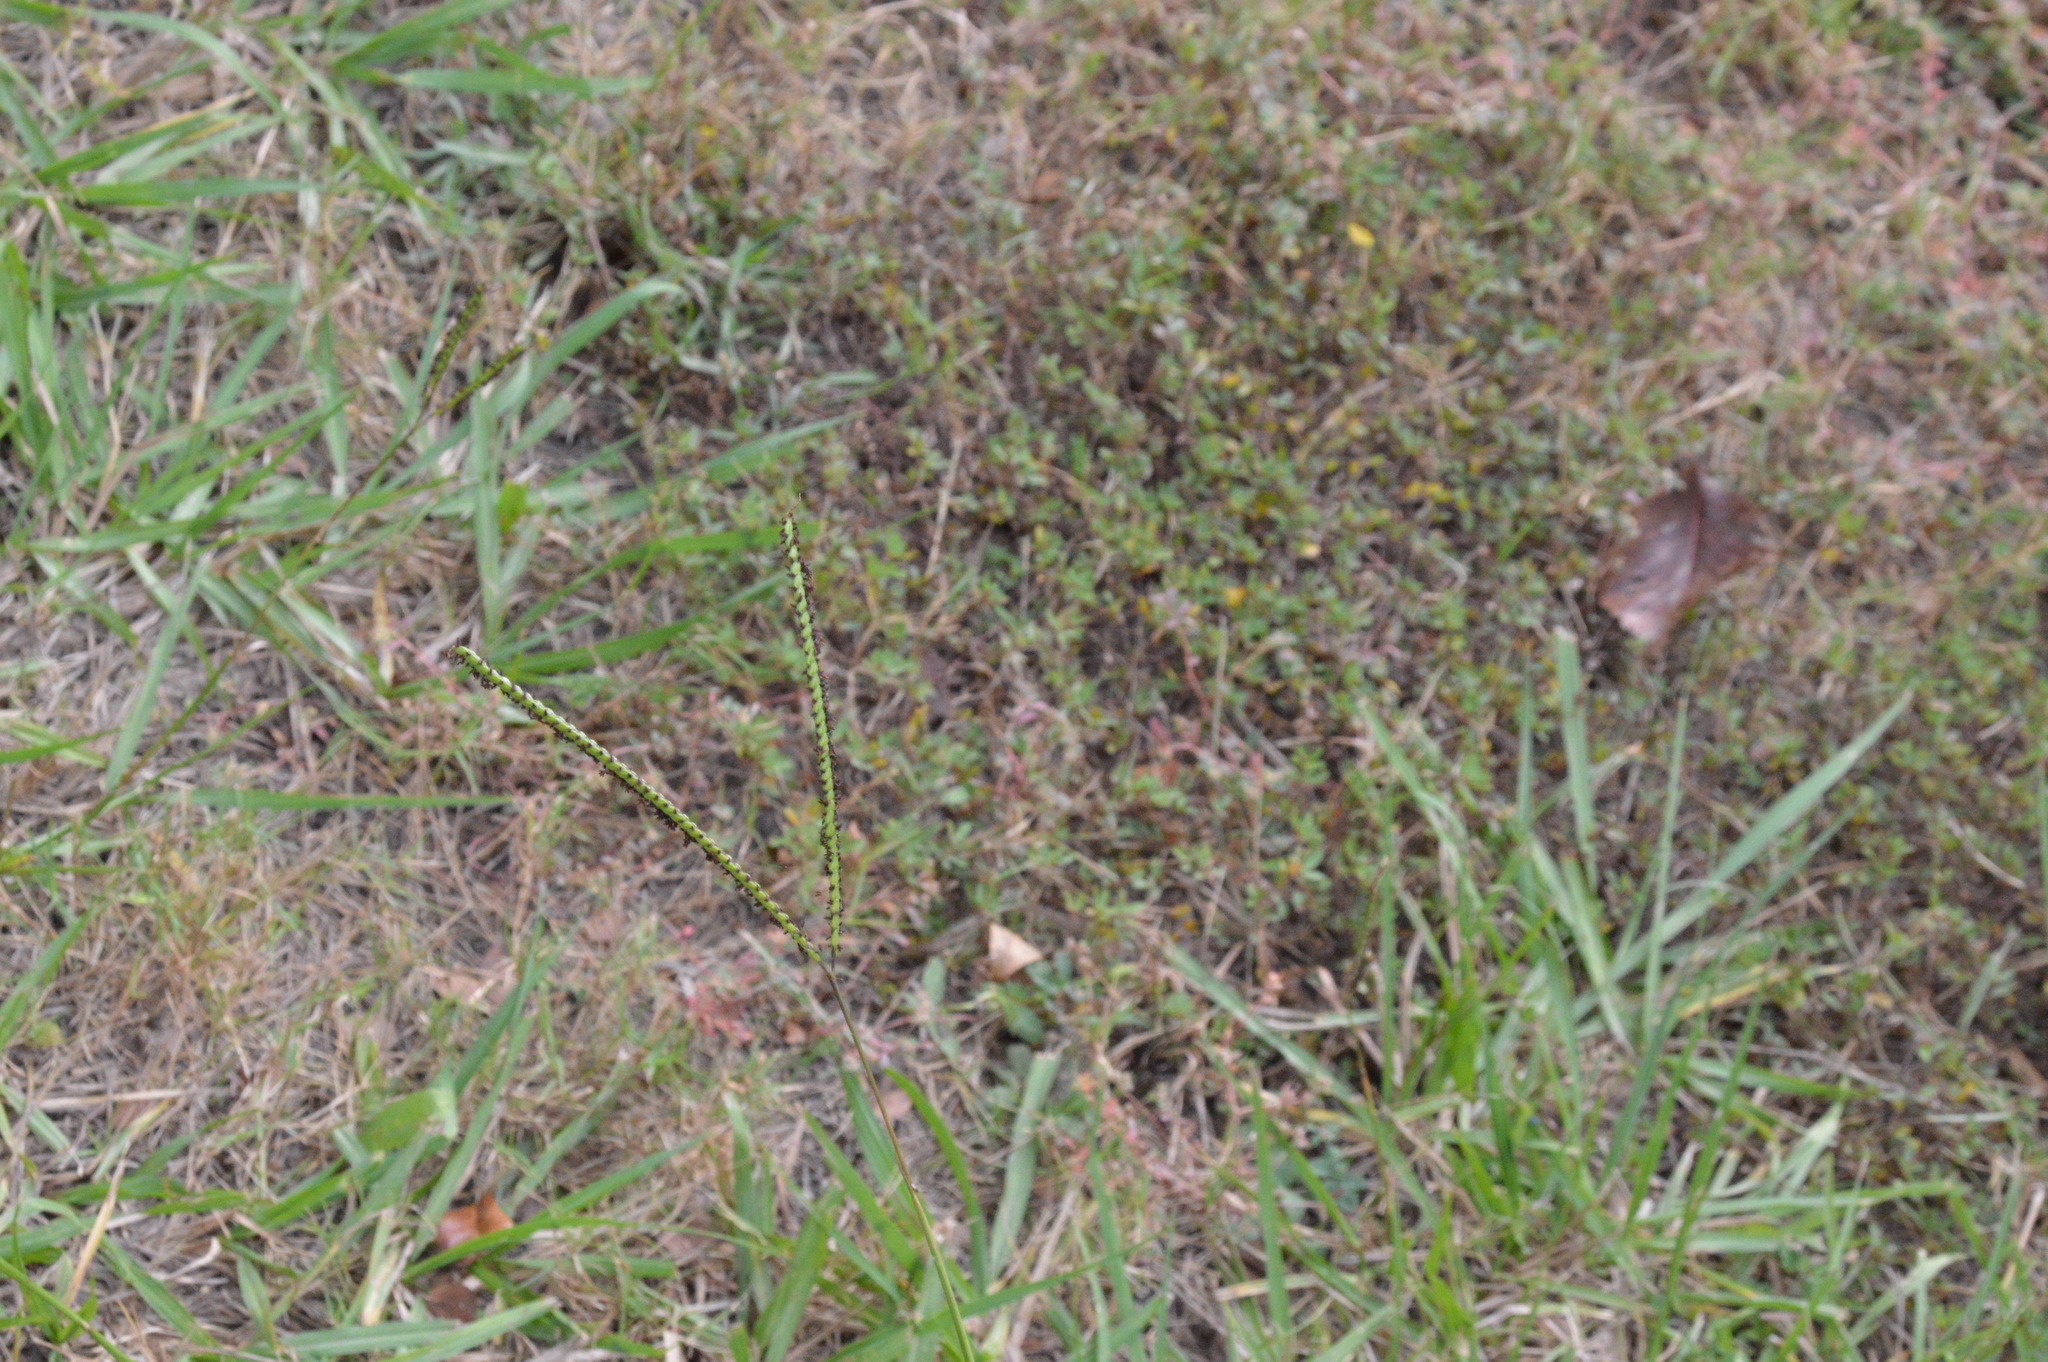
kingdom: Plantae
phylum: Tracheophyta
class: Liliopsida
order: Poales
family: Poaceae
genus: Paspalum
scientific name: Paspalum notatum
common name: Bahiagrass
